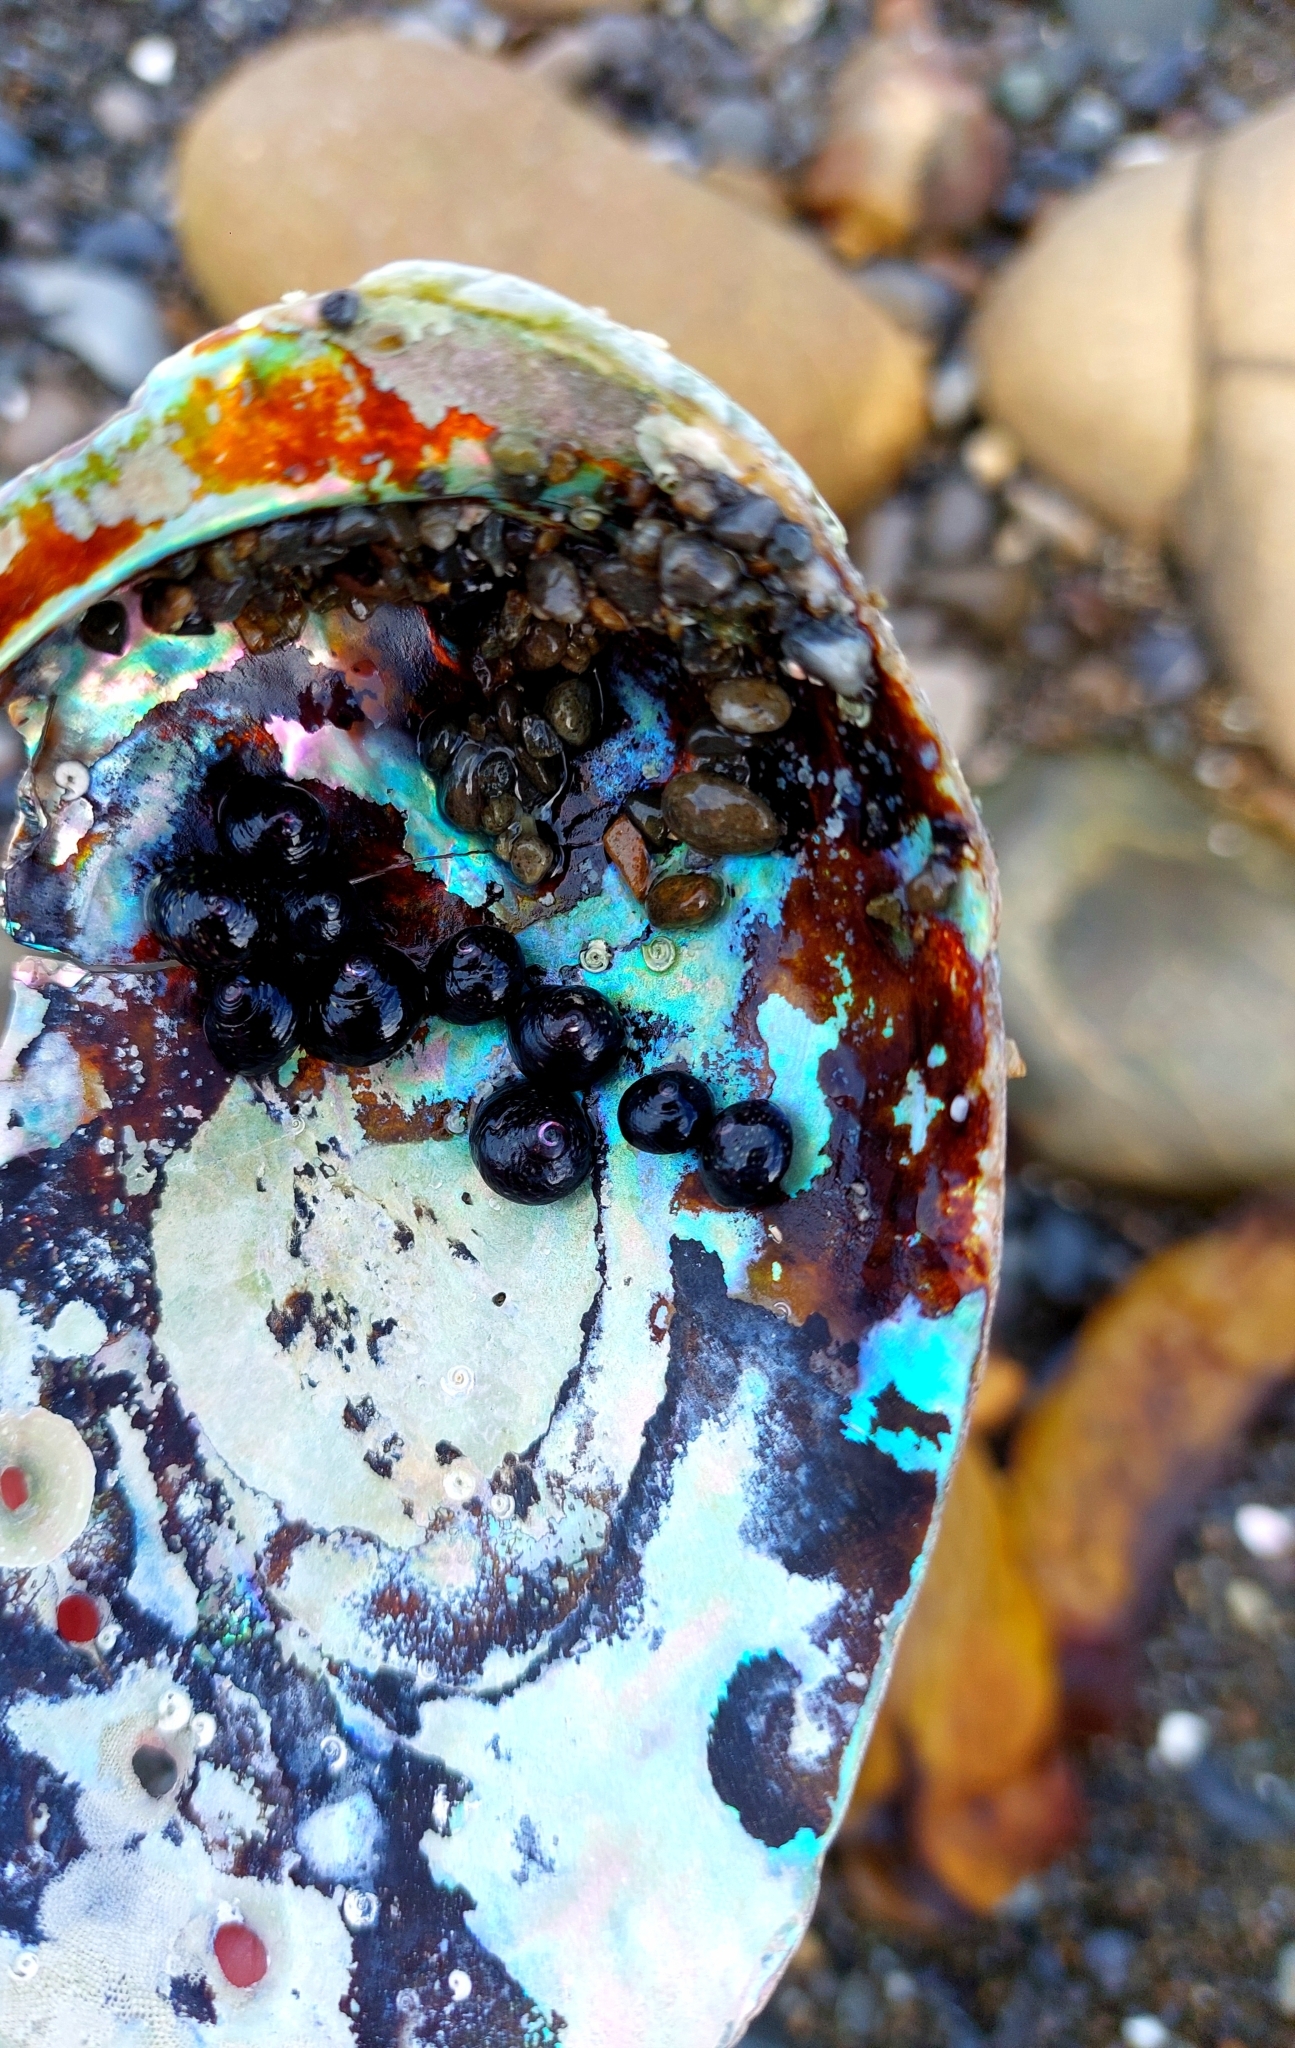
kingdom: Animalia
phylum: Mollusca
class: Gastropoda
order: Lepetellida
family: Haliotidae
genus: Haliotis
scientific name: Haliotis iris
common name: Abalone
